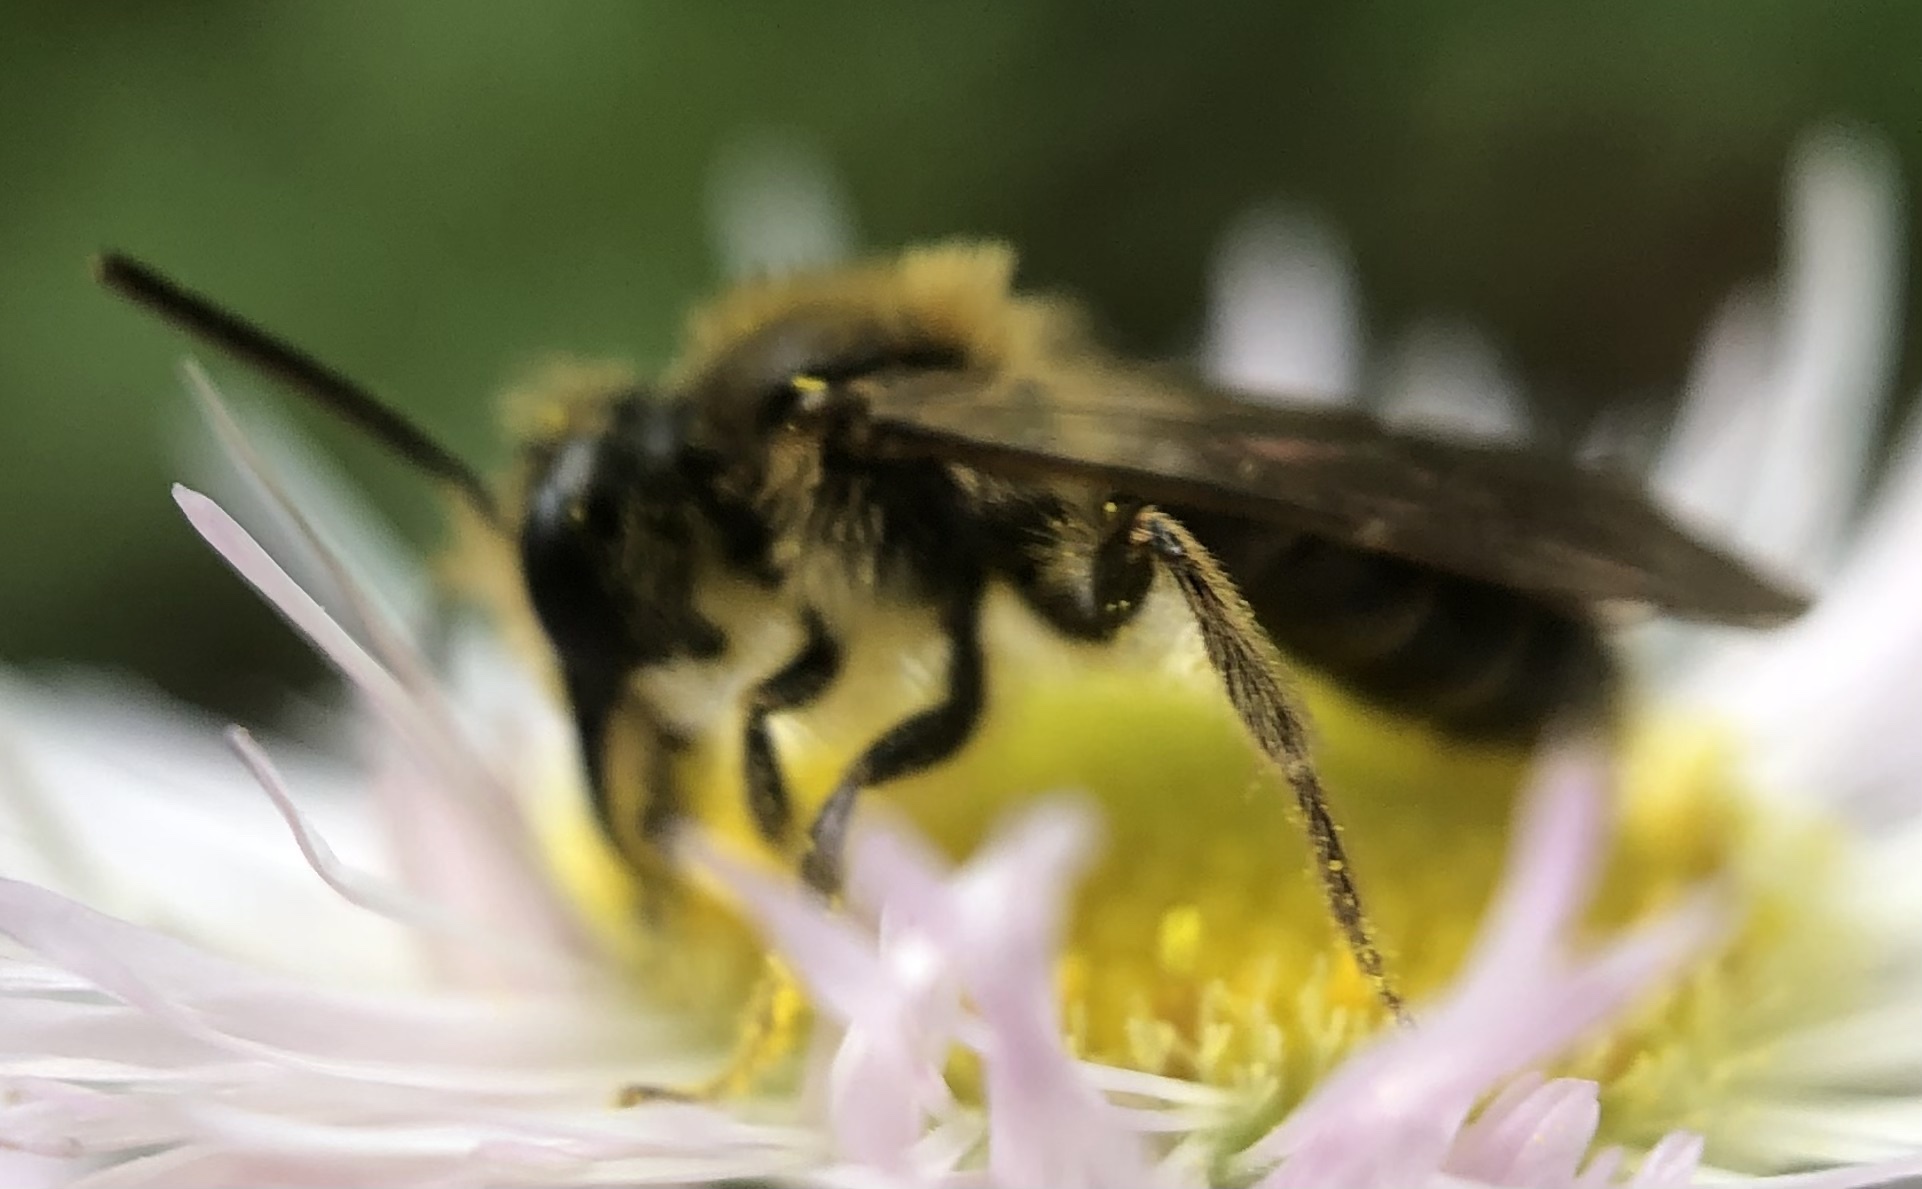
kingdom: Animalia
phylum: Arthropoda
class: Insecta
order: Hymenoptera
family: Andrenidae
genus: Andrena
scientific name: Andrena cerebrata
